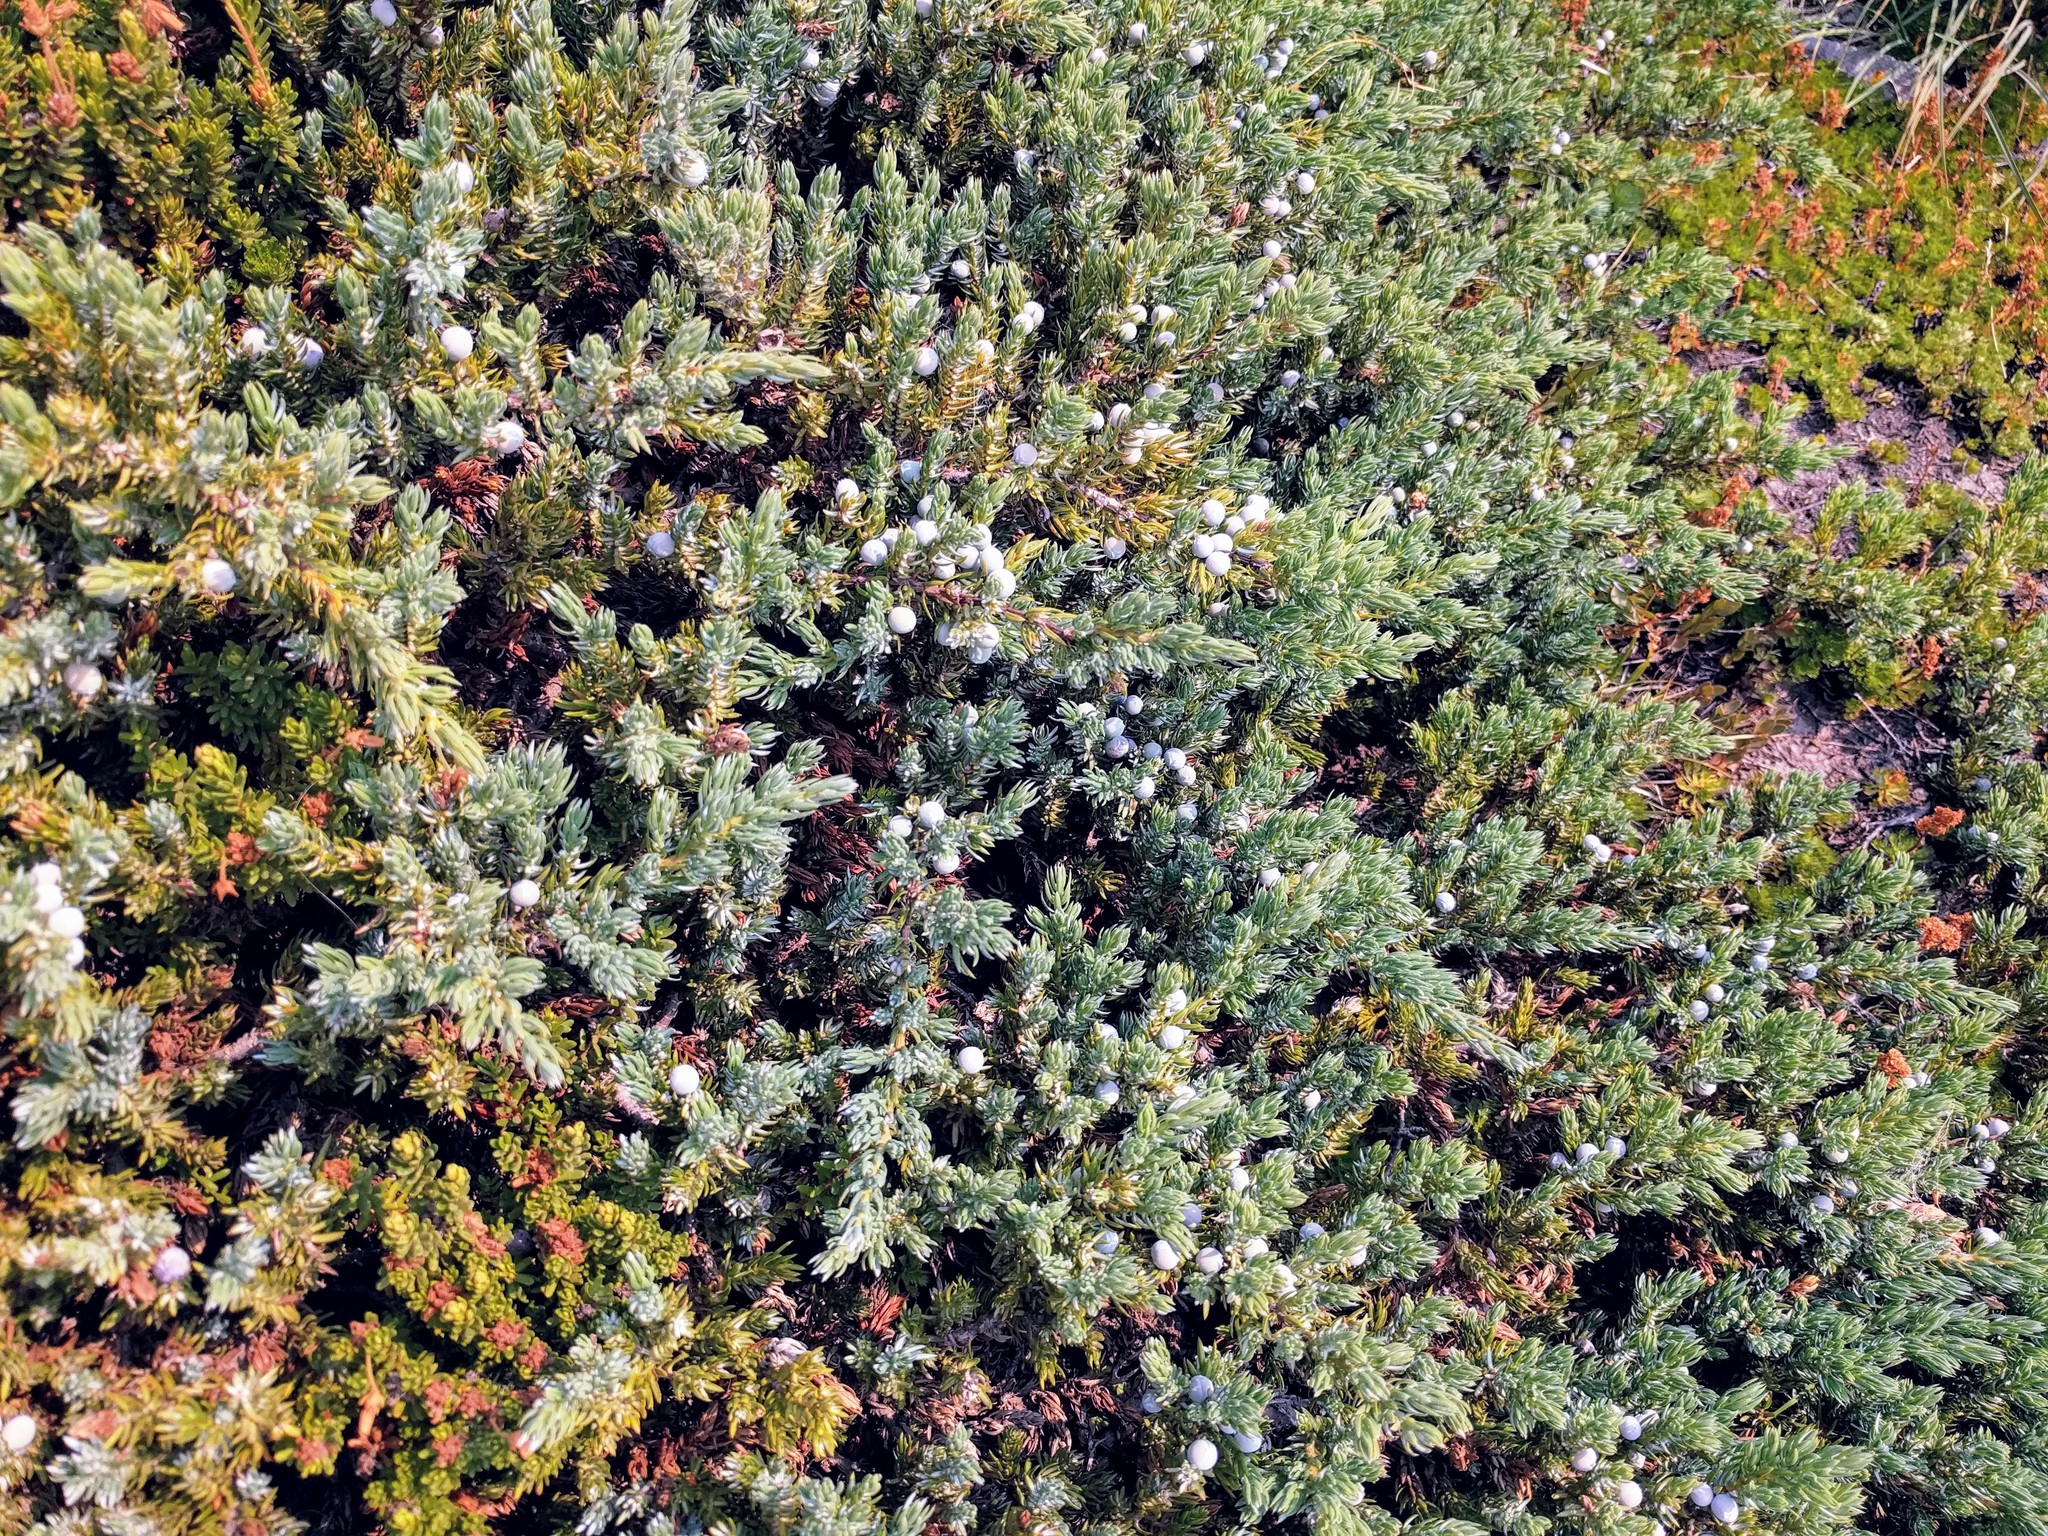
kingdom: Plantae
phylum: Tracheophyta
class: Pinopsida
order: Pinales
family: Cupressaceae
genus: Juniperus
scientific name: Juniperus communis
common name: Common juniper
